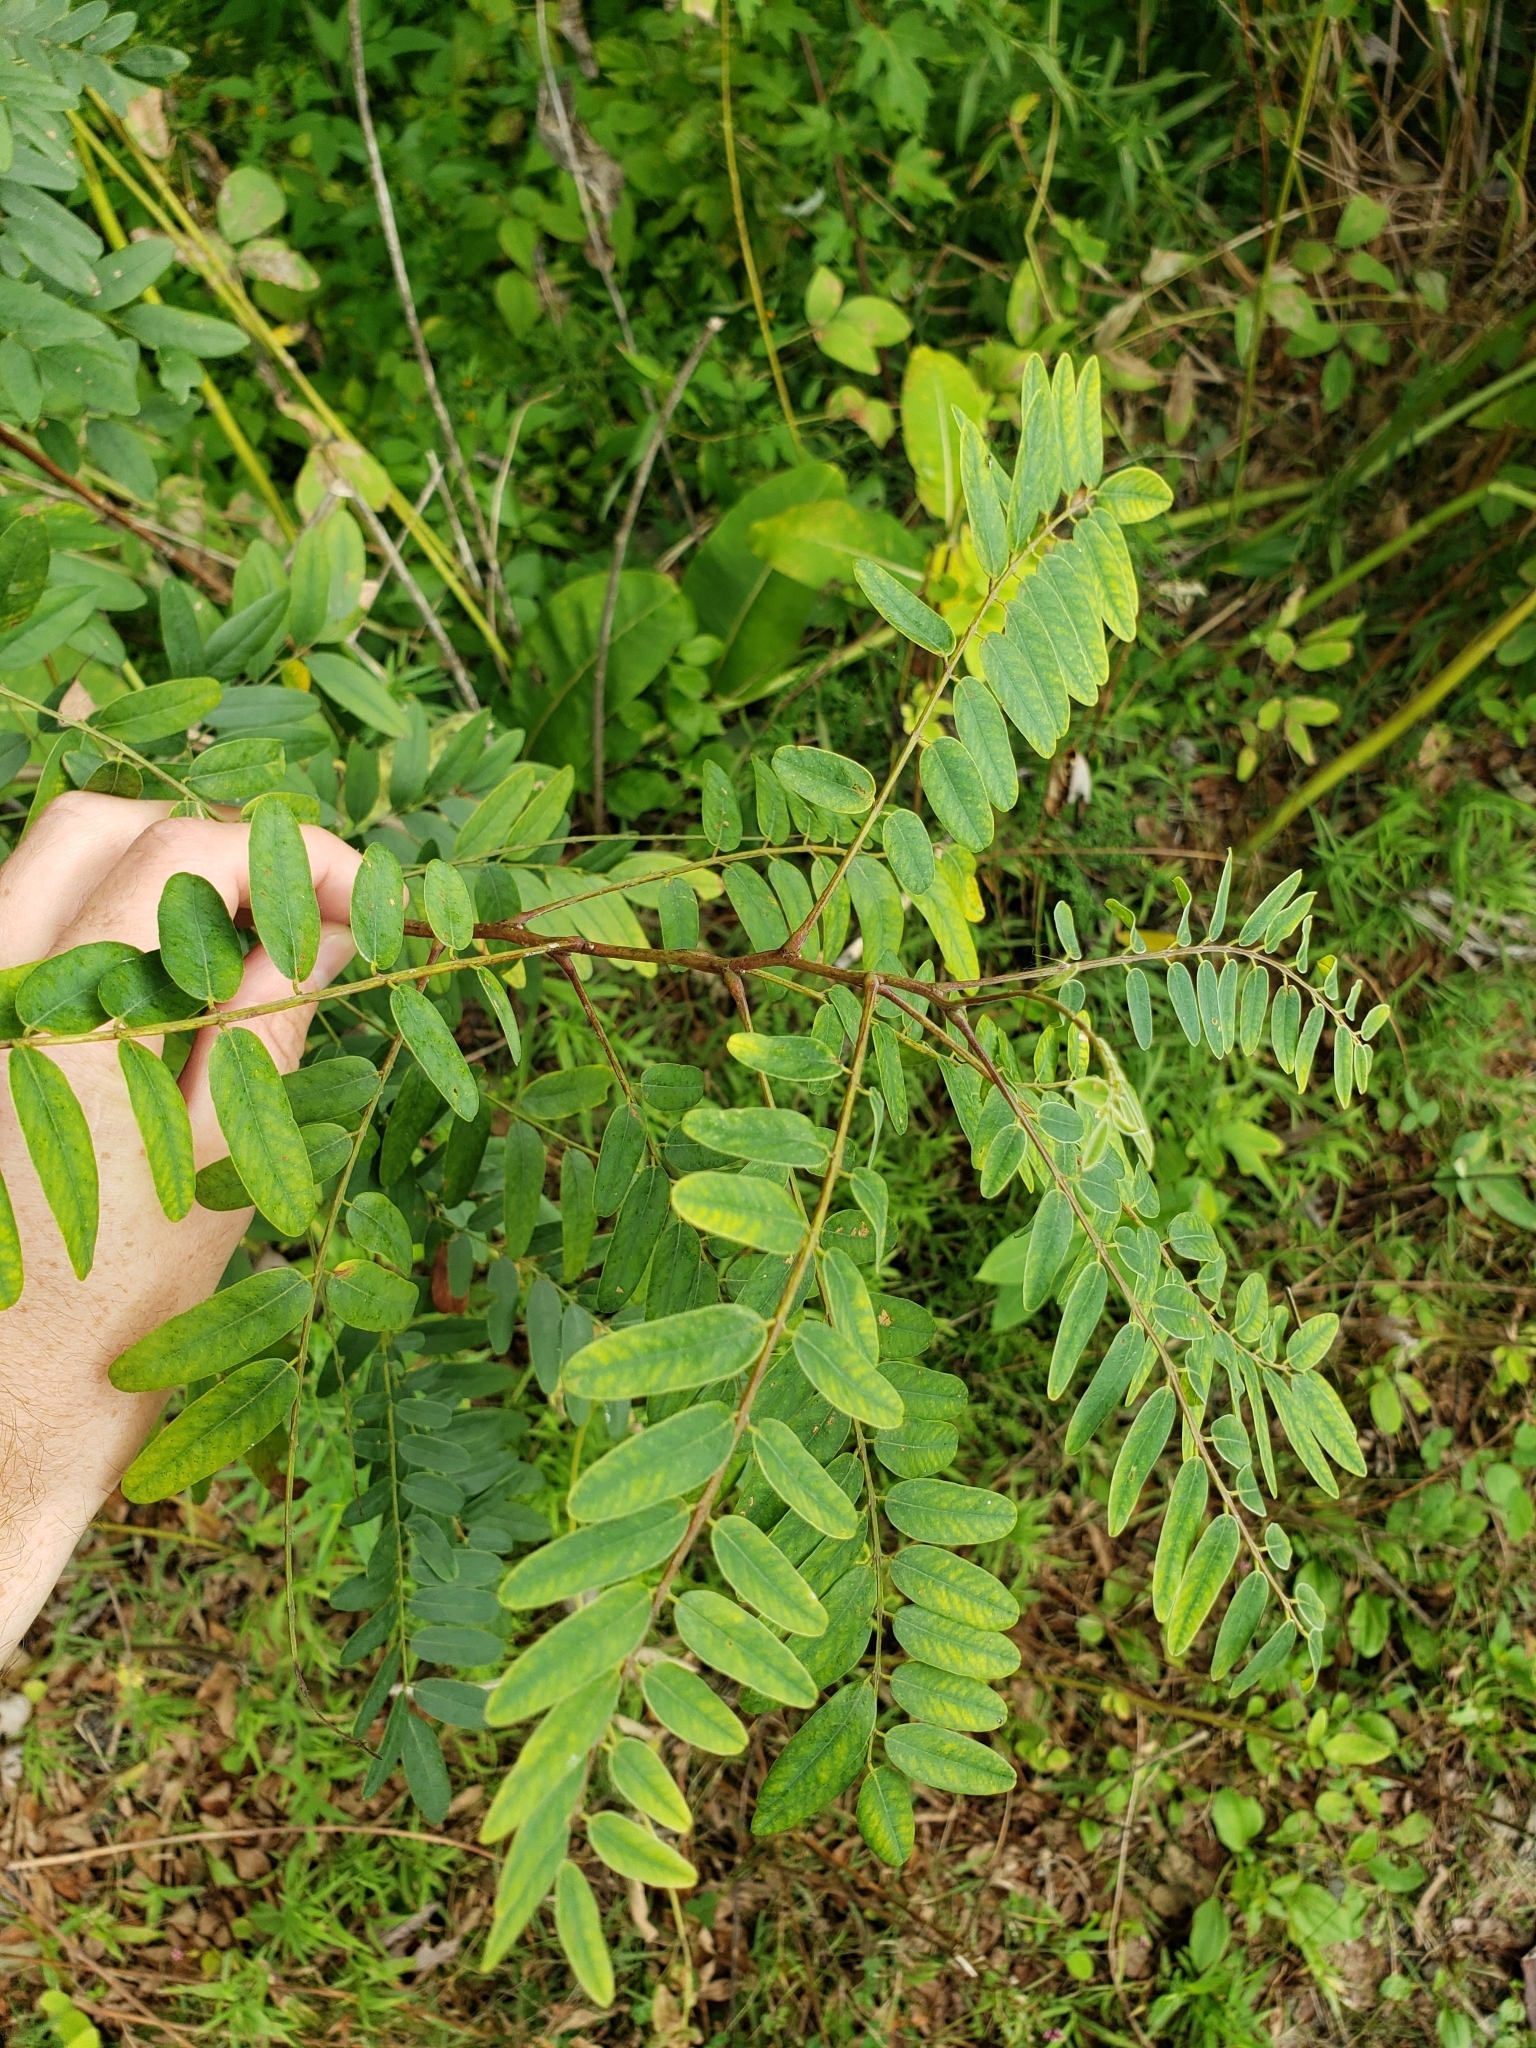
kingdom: Plantae
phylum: Tracheophyta
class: Magnoliopsida
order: Fabales
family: Fabaceae
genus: Robinia
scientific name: Robinia pseudoacacia
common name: Black locust
